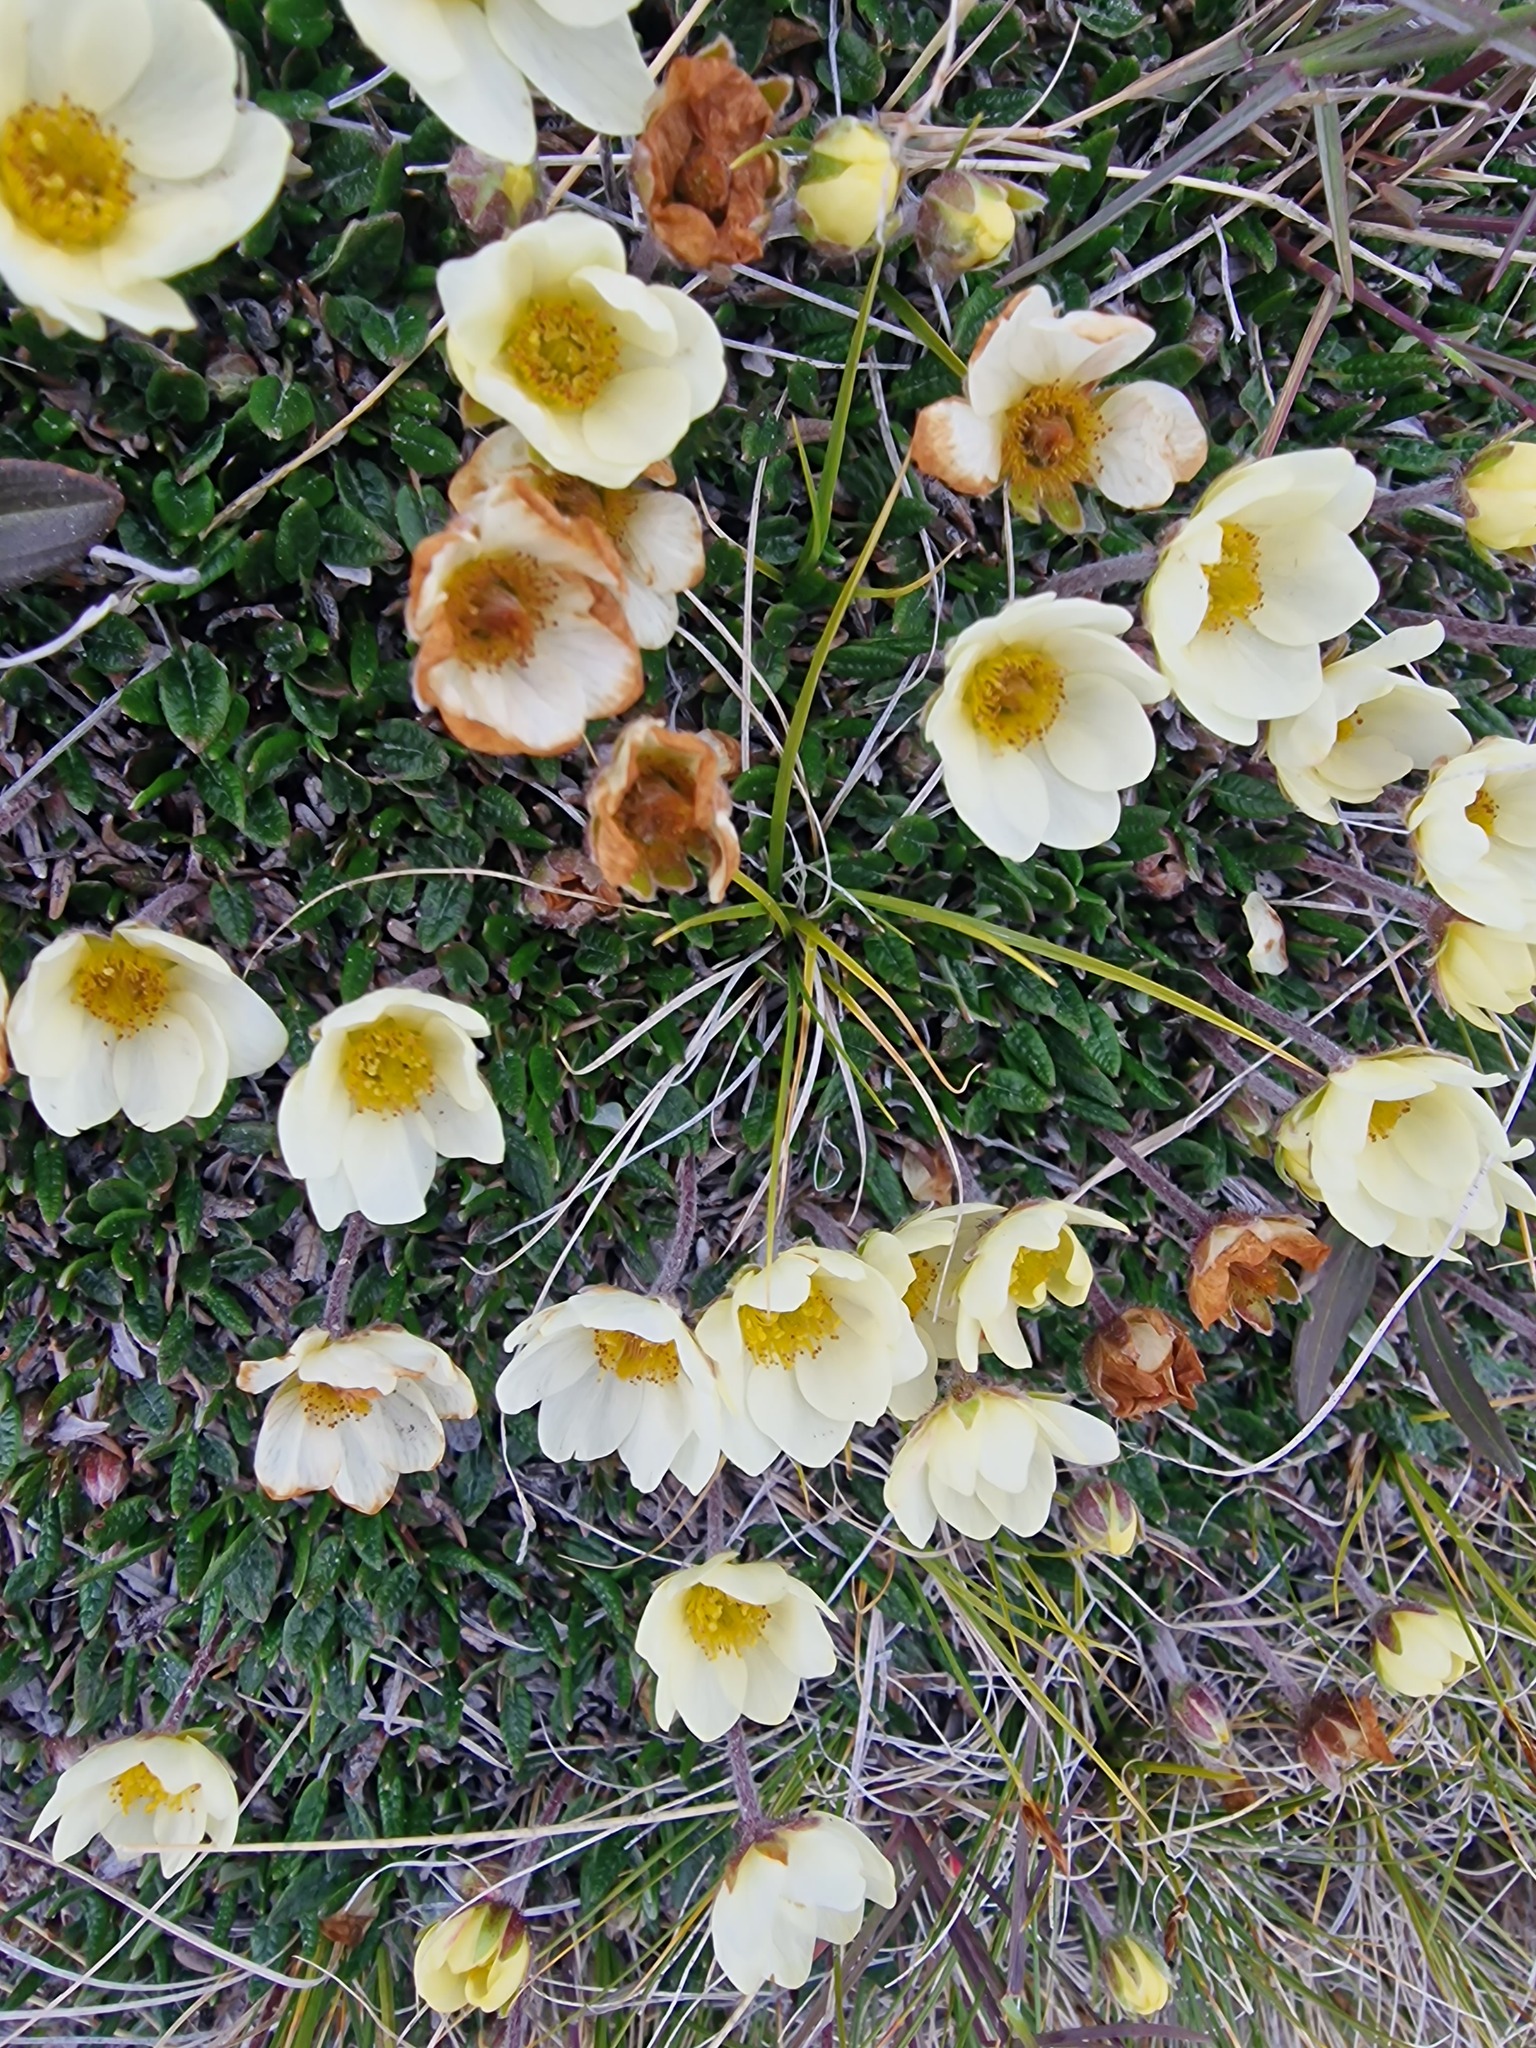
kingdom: Plantae
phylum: Tracheophyta
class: Magnoliopsida
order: Rosales
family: Rosaceae
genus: Dryas
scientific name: Dryas integrifolia
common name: Entire-leaved mountain avens
